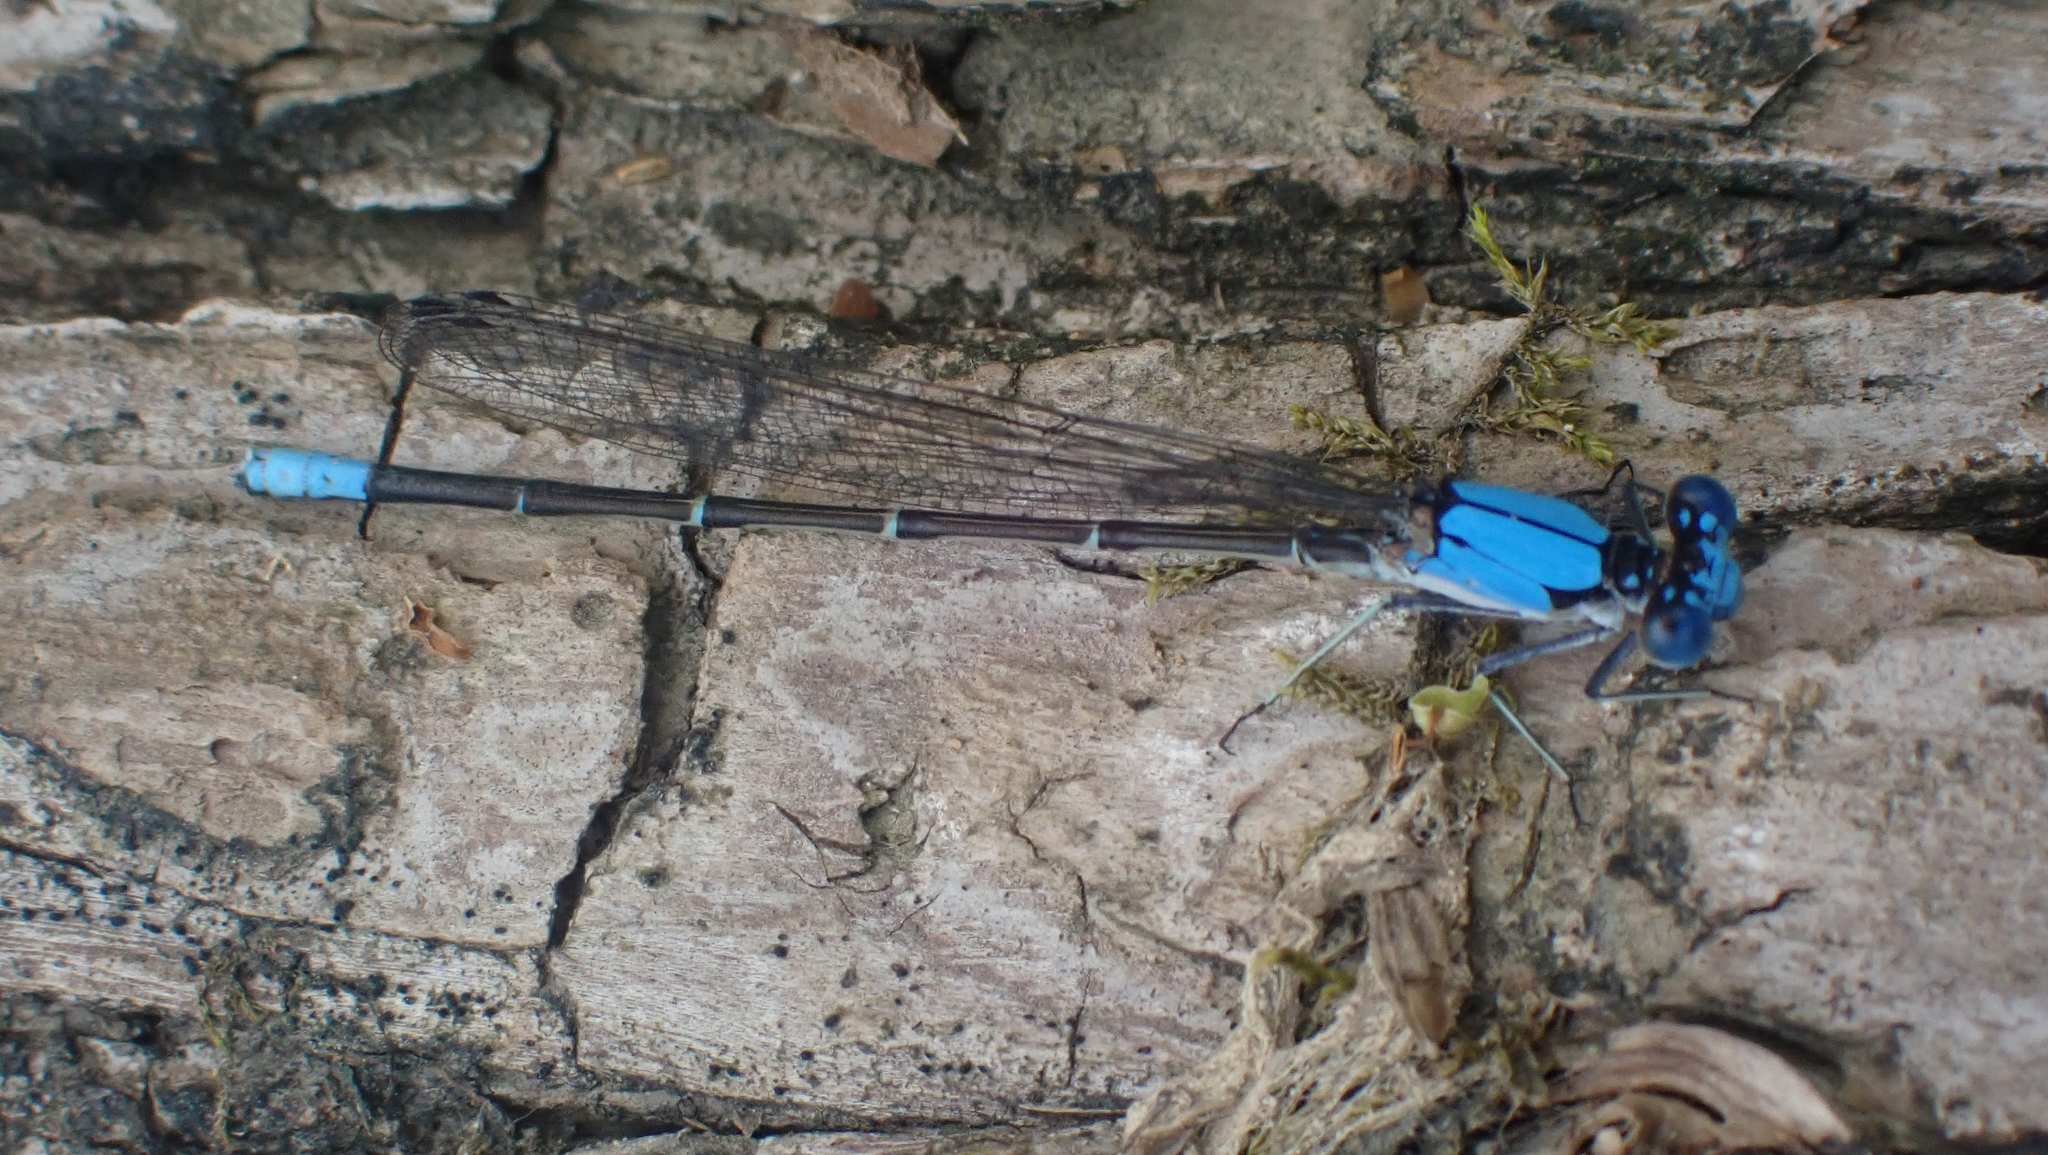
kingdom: Animalia
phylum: Arthropoda
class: Insecta
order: Odonata
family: Coenagrionidae
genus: Argia
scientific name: Argia apicalis
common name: Blue-fronted dancer
